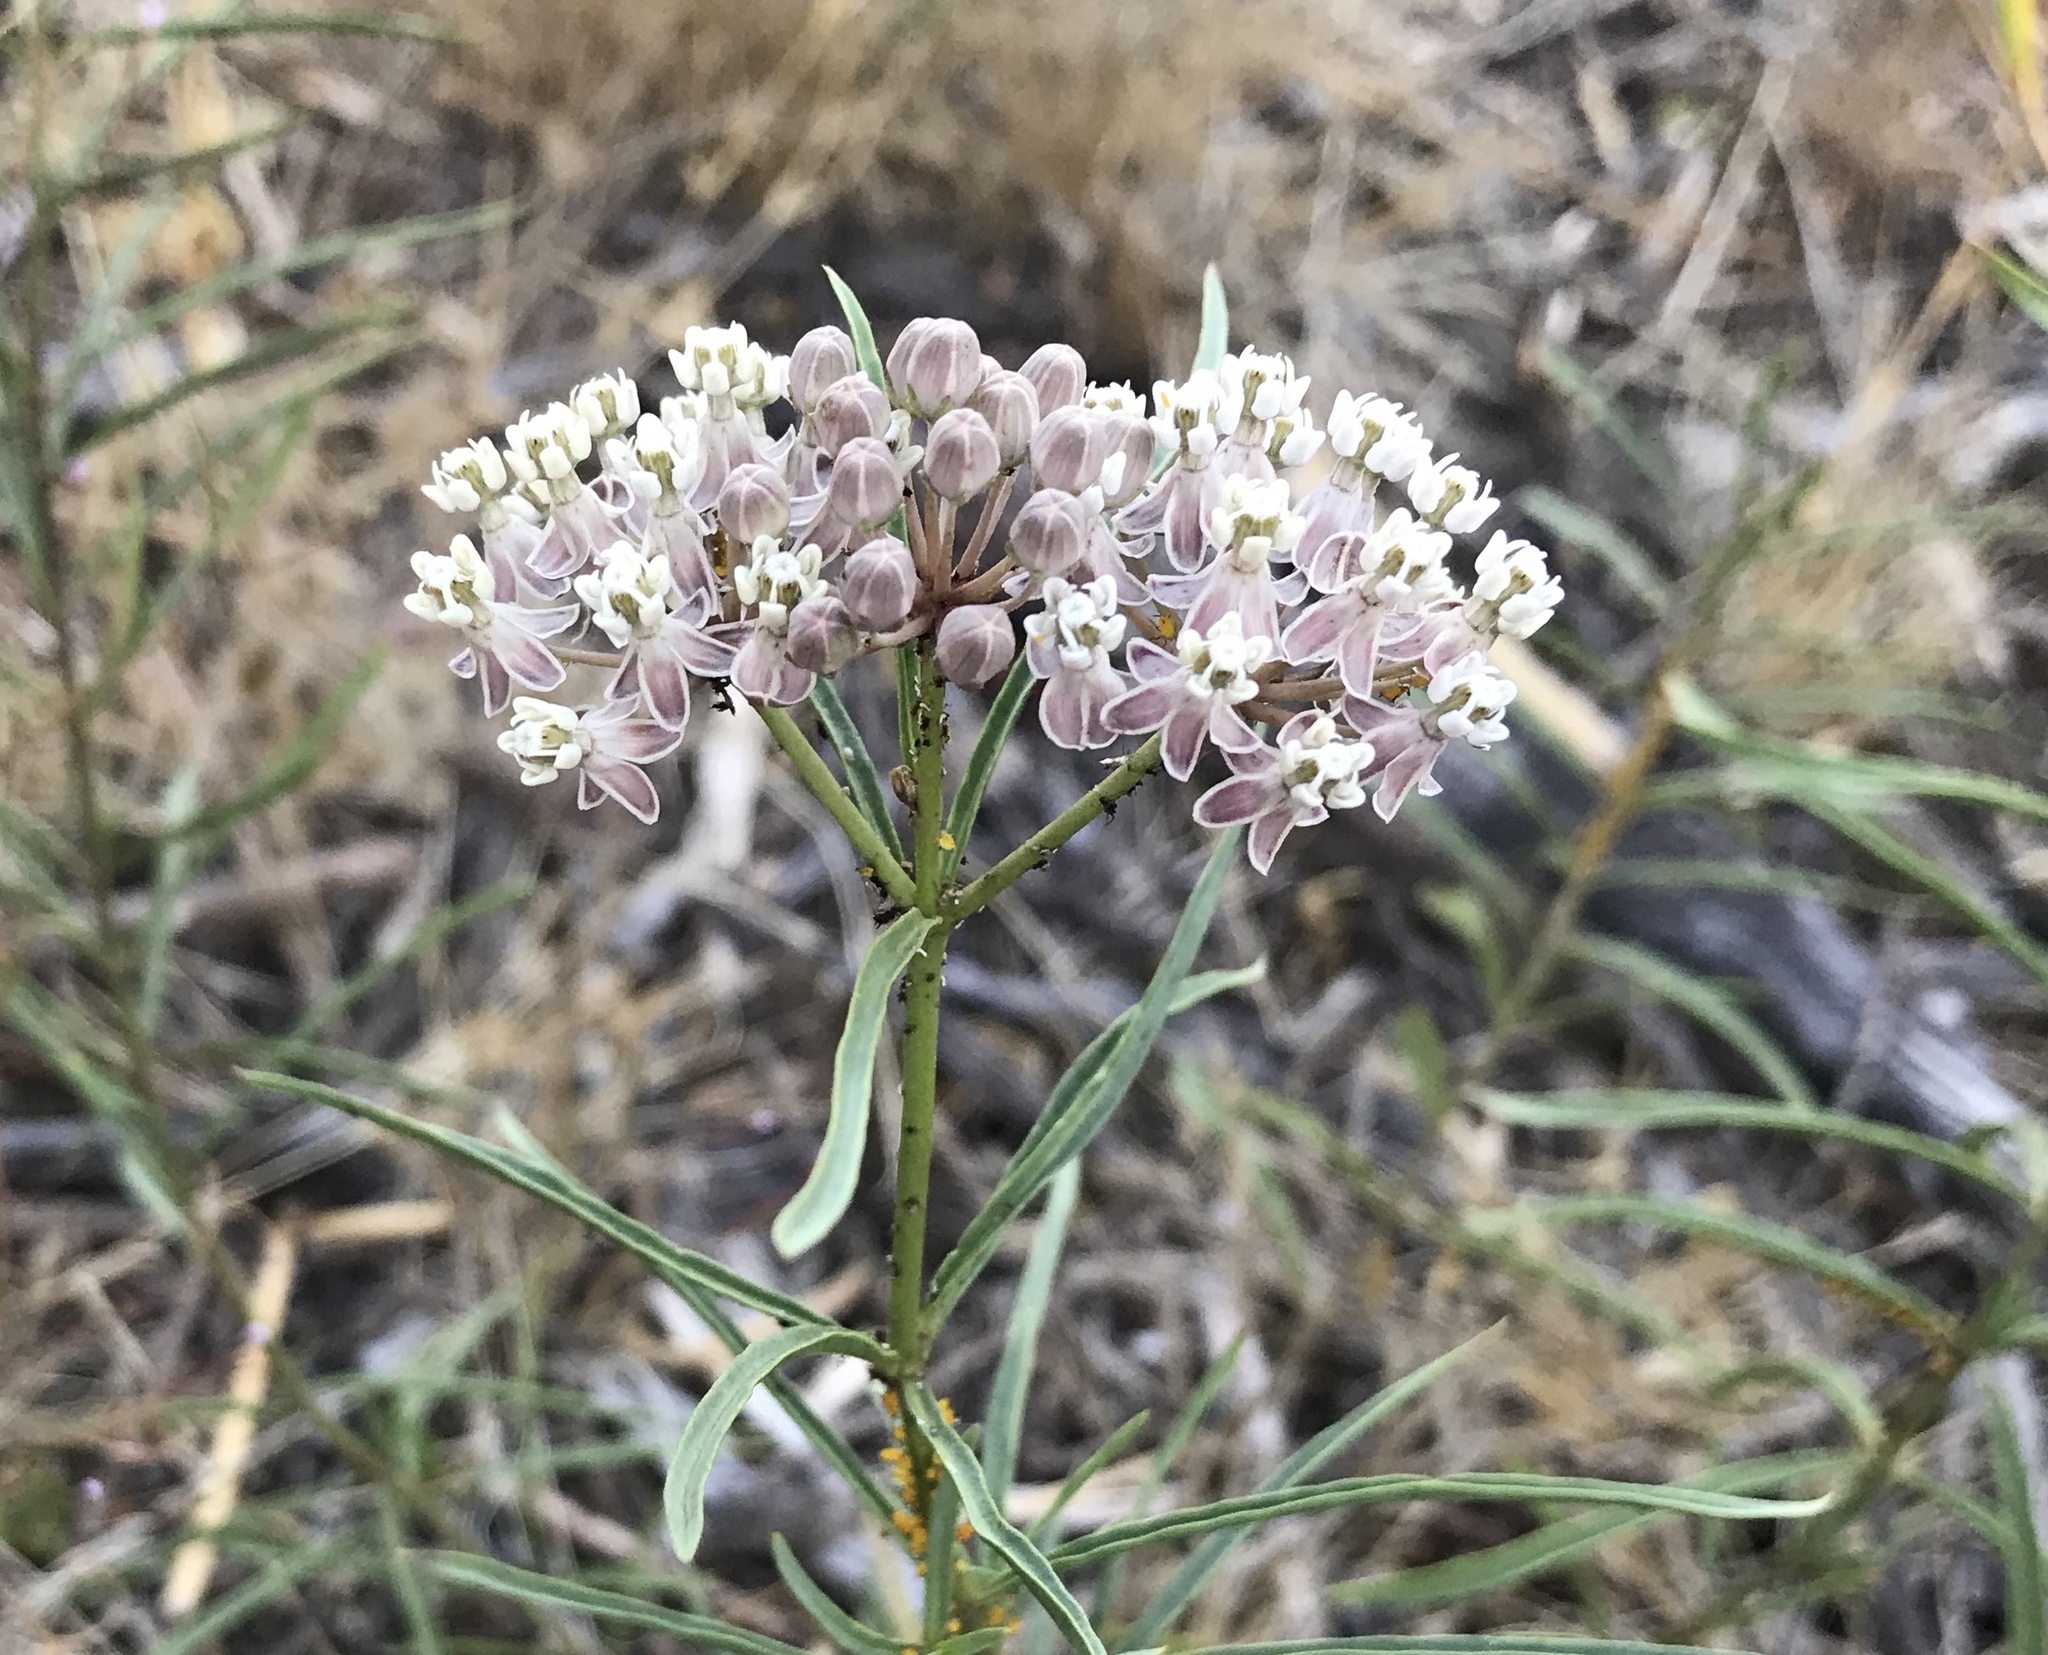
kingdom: Plantae
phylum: Tracheophyta
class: Magnoliopsida
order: Gentianales
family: Apocynaceae
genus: Asclepias
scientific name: Asclepias fascicularis
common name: Mexican milkweed
